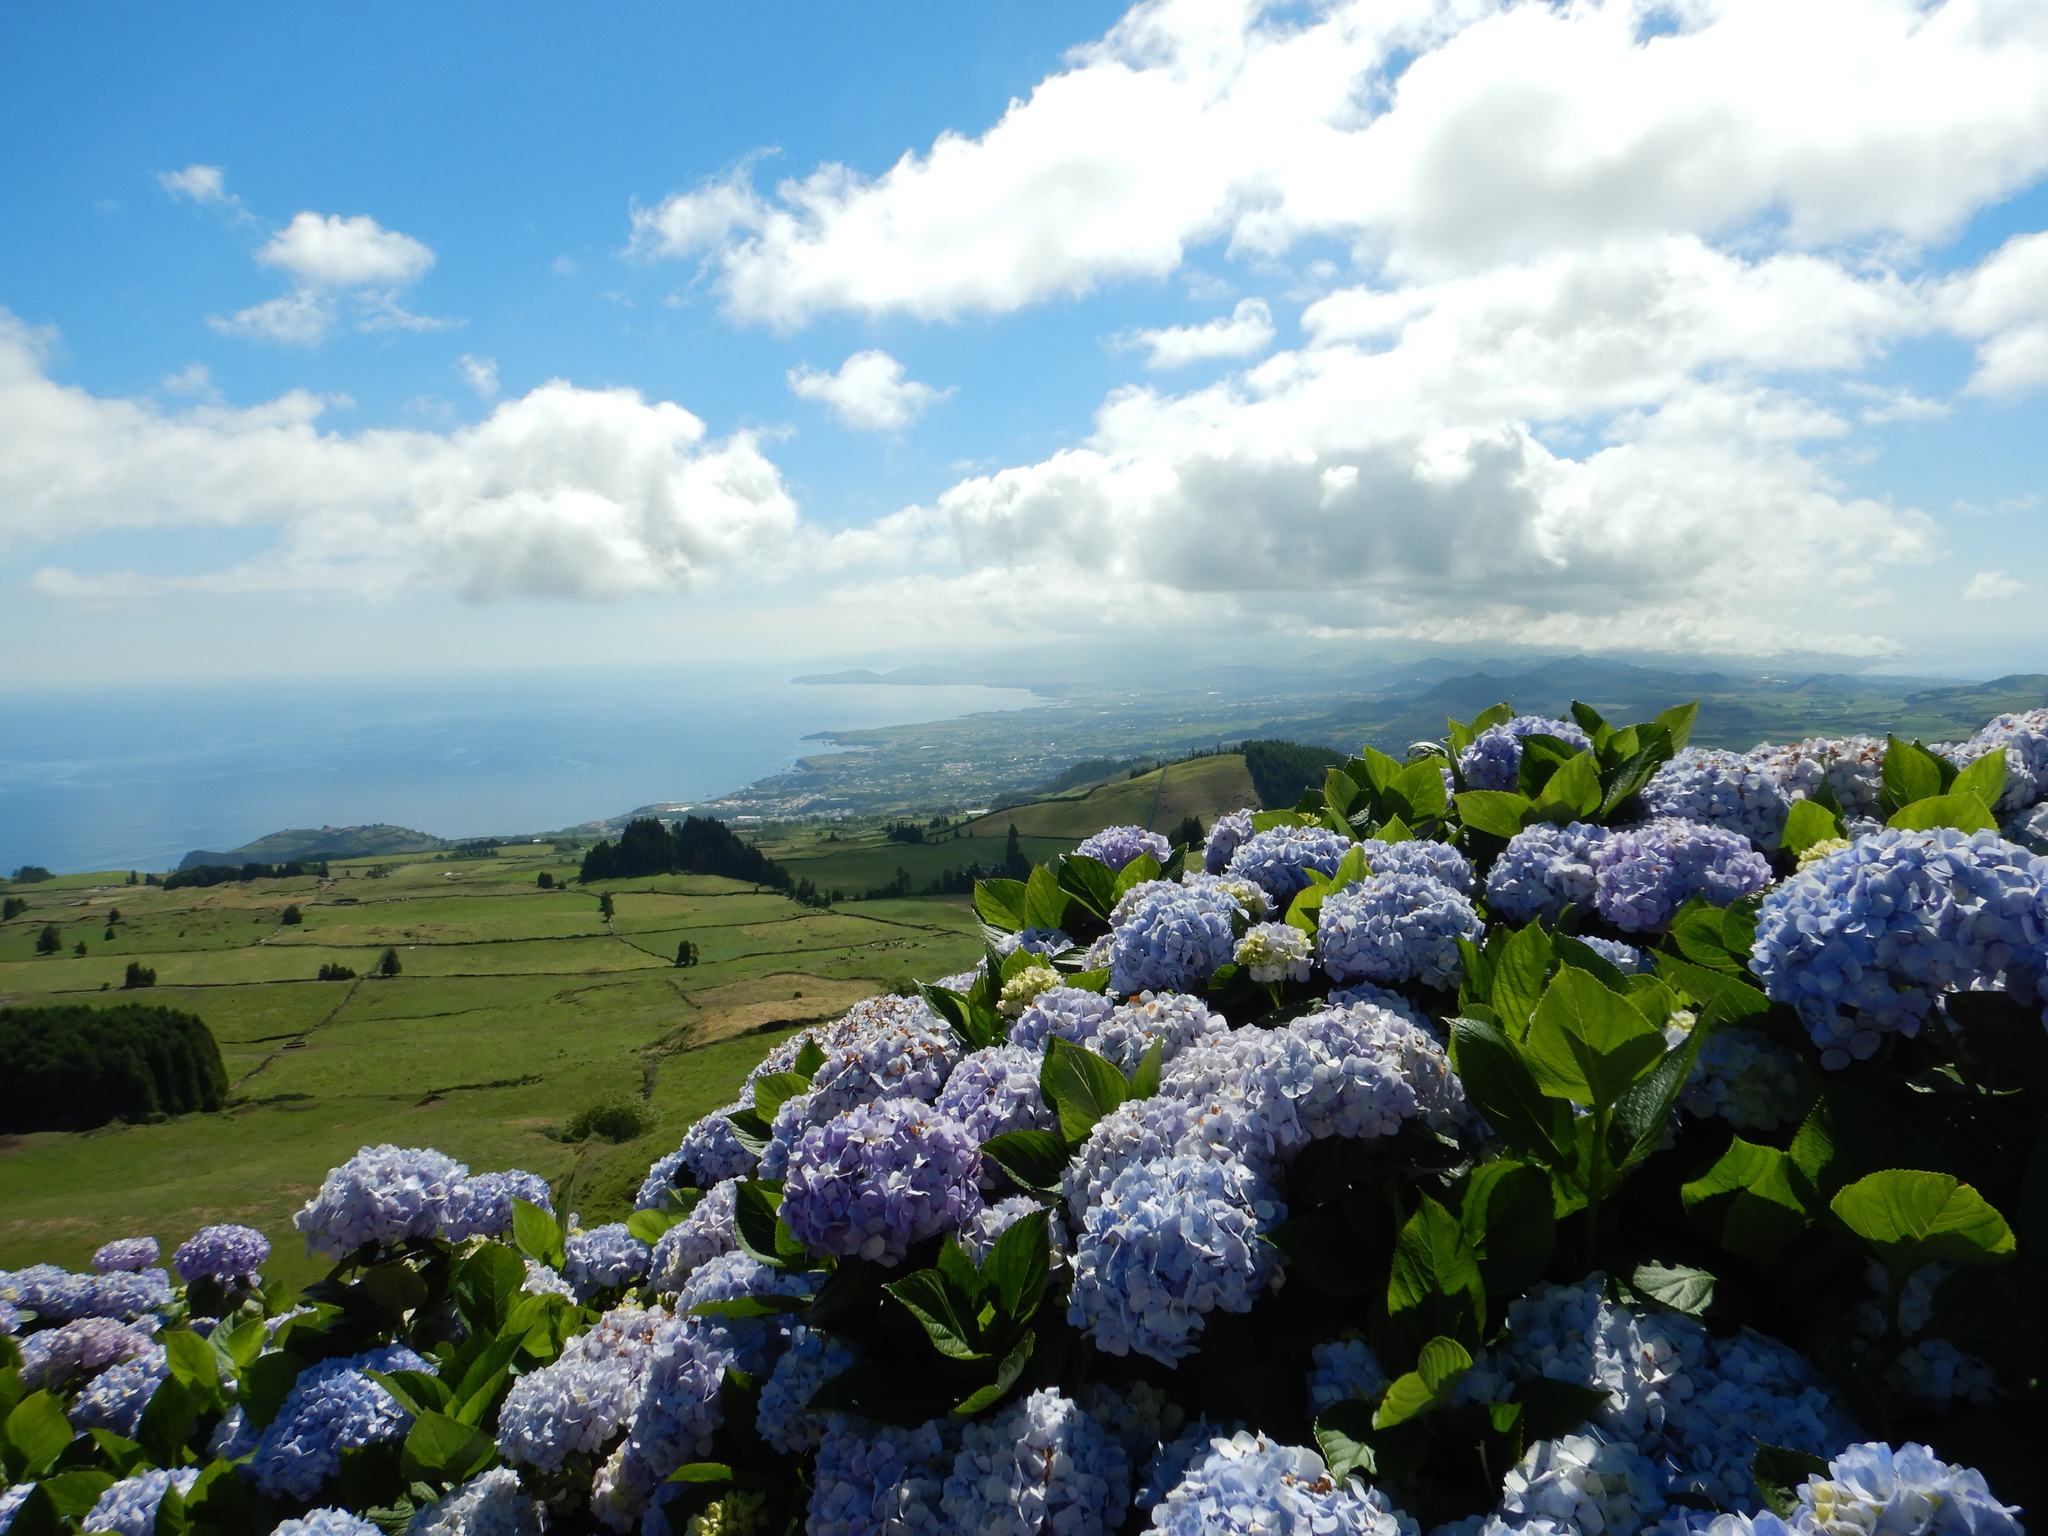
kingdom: Plantae
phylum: Tracheophyta
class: Magnoliopsida
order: Cornales
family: Hydrangeaceae
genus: Hydrangea
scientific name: Hydrangea macrophylla
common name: Hydrangea
